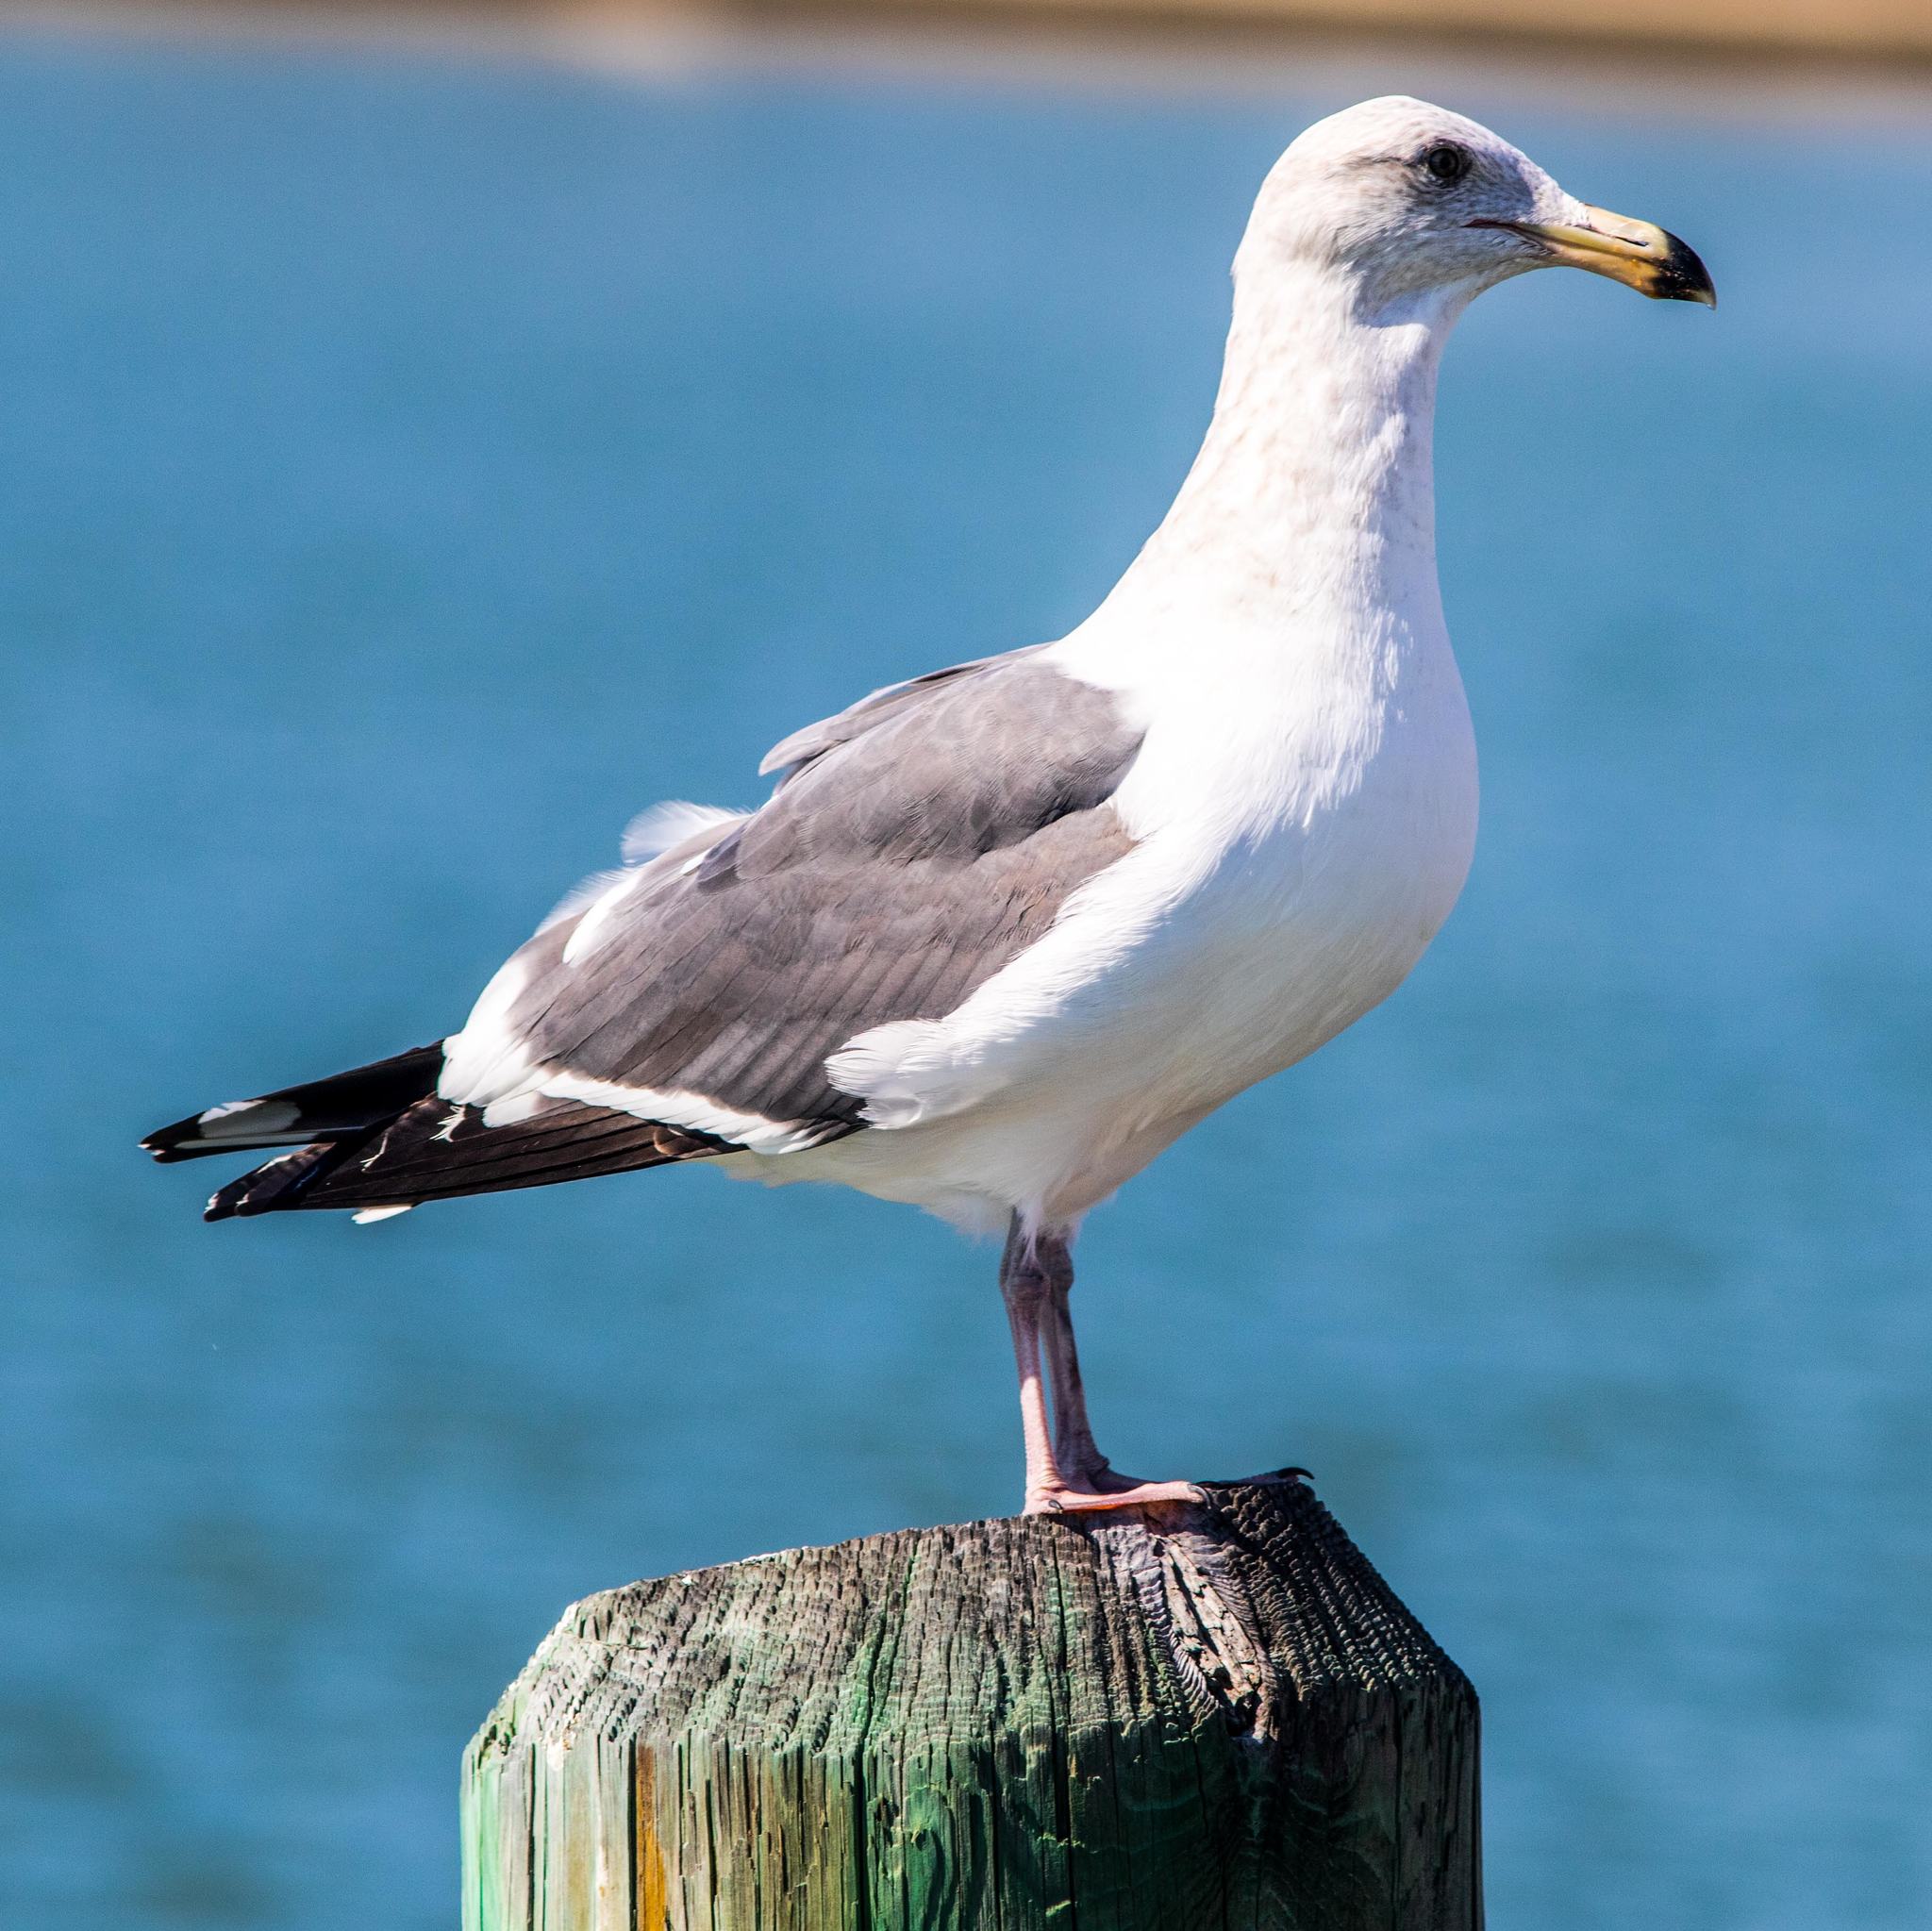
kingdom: Animalia
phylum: Chordata
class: Aves
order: Charadriiformes
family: Laridae
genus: Larus
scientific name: Larus occidentalis
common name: Western gull
